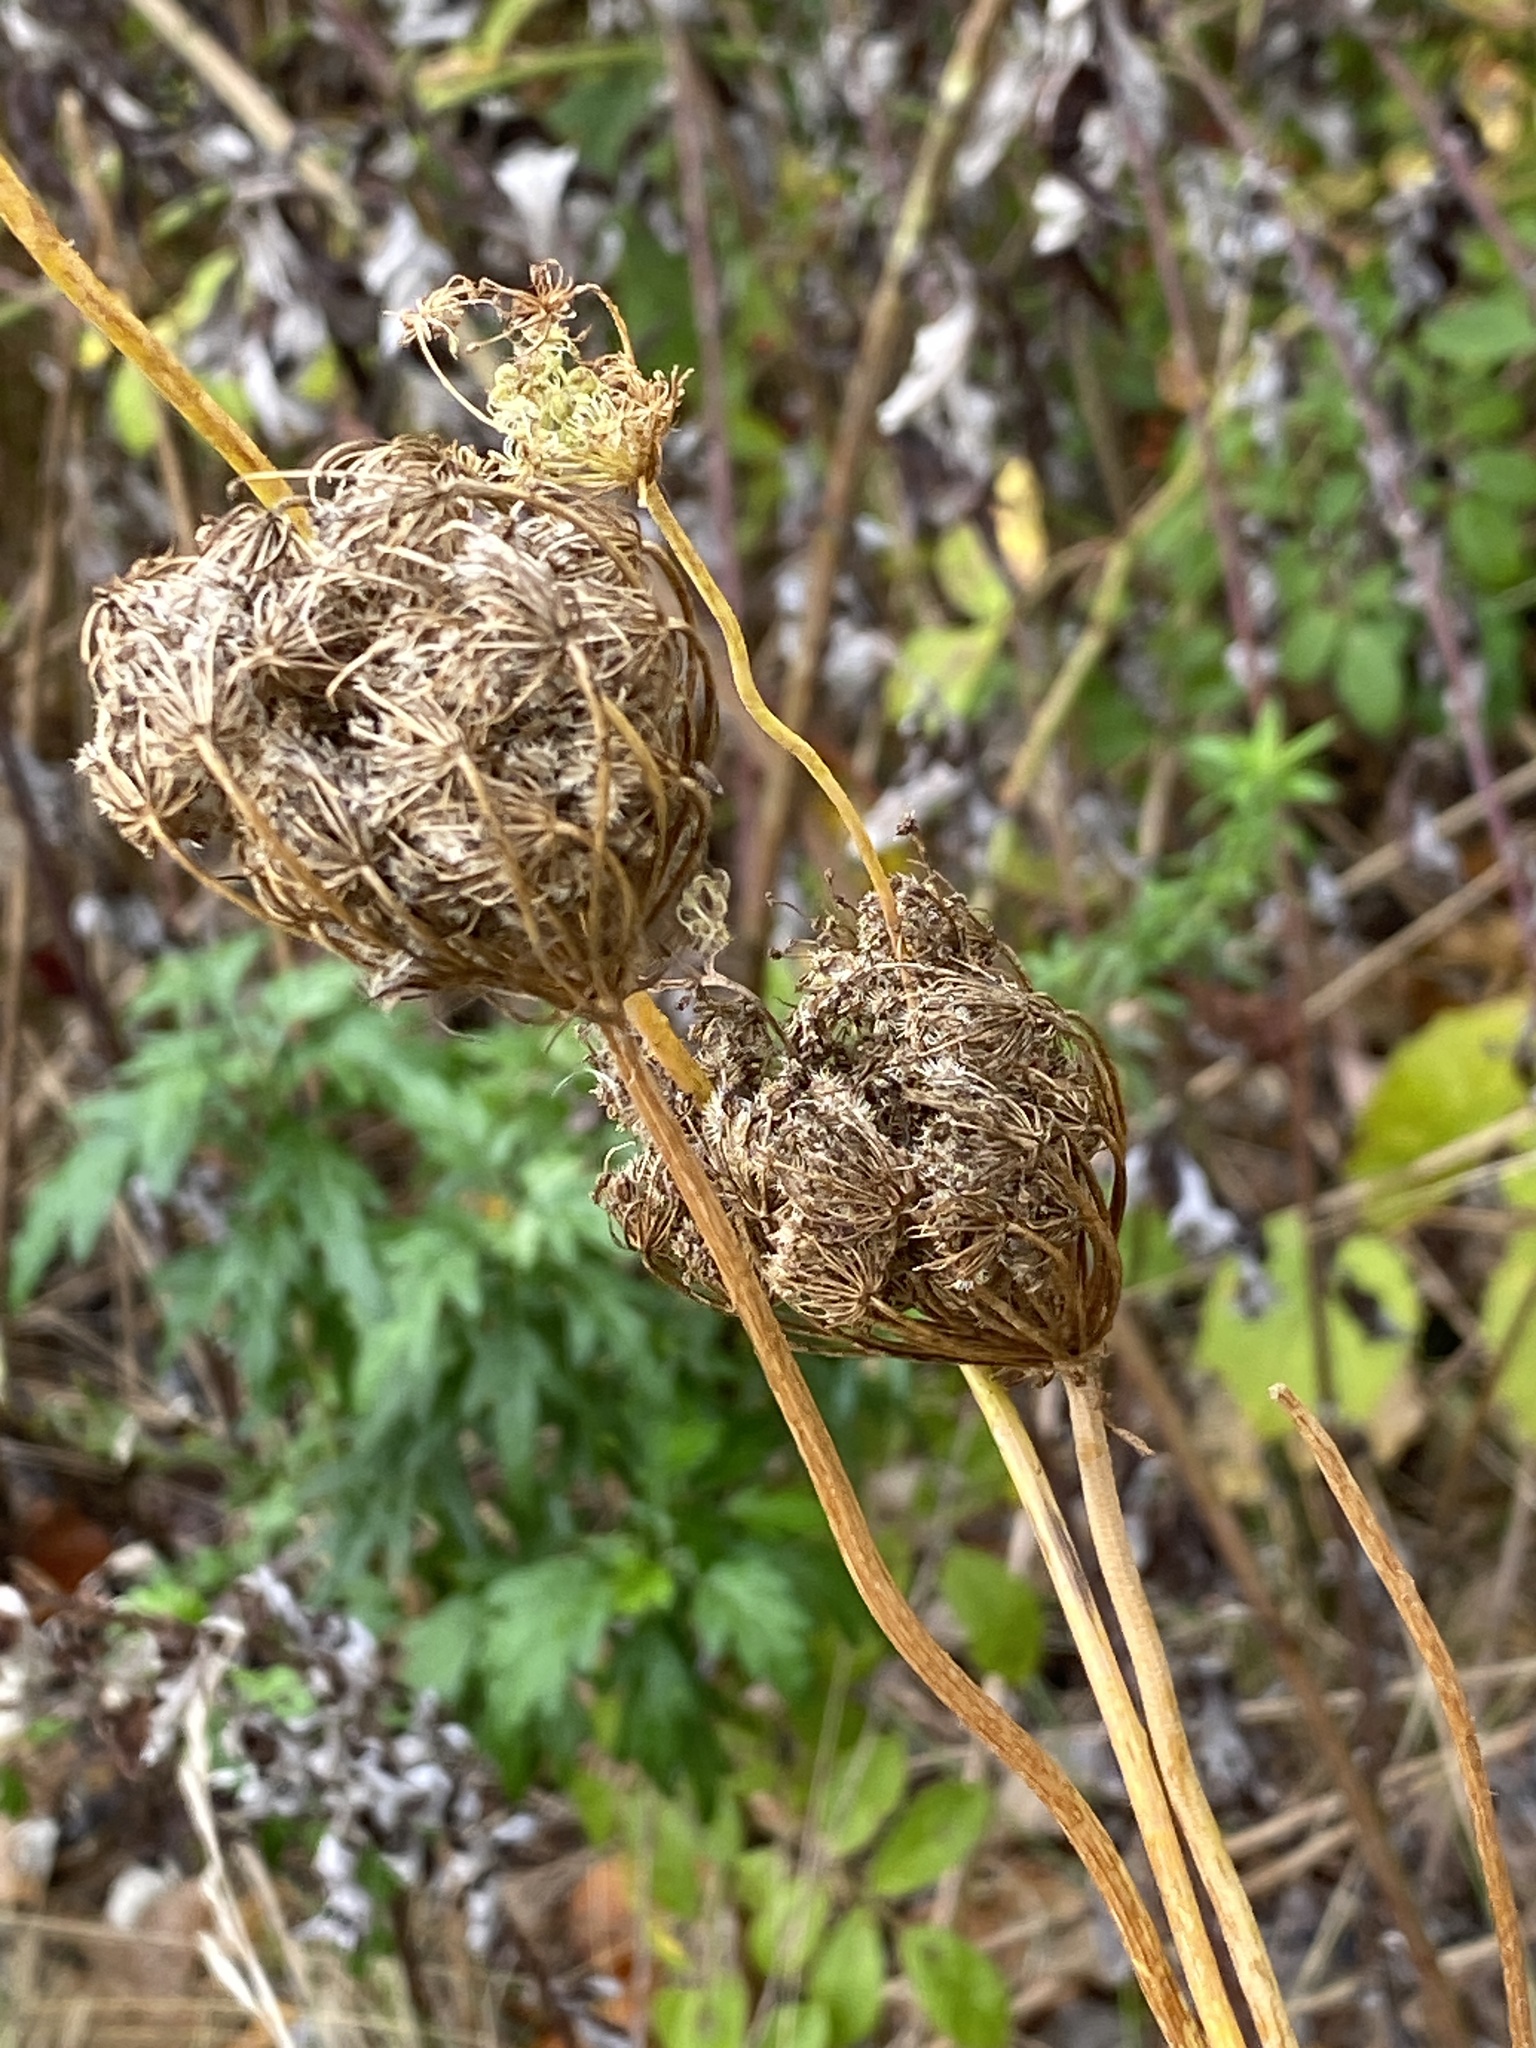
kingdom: Plantae
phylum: Tracheophyta
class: Magnoliopsida
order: Apiales
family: Apiaceae
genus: Daucus
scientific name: Daucus carota
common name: Wild carrot
